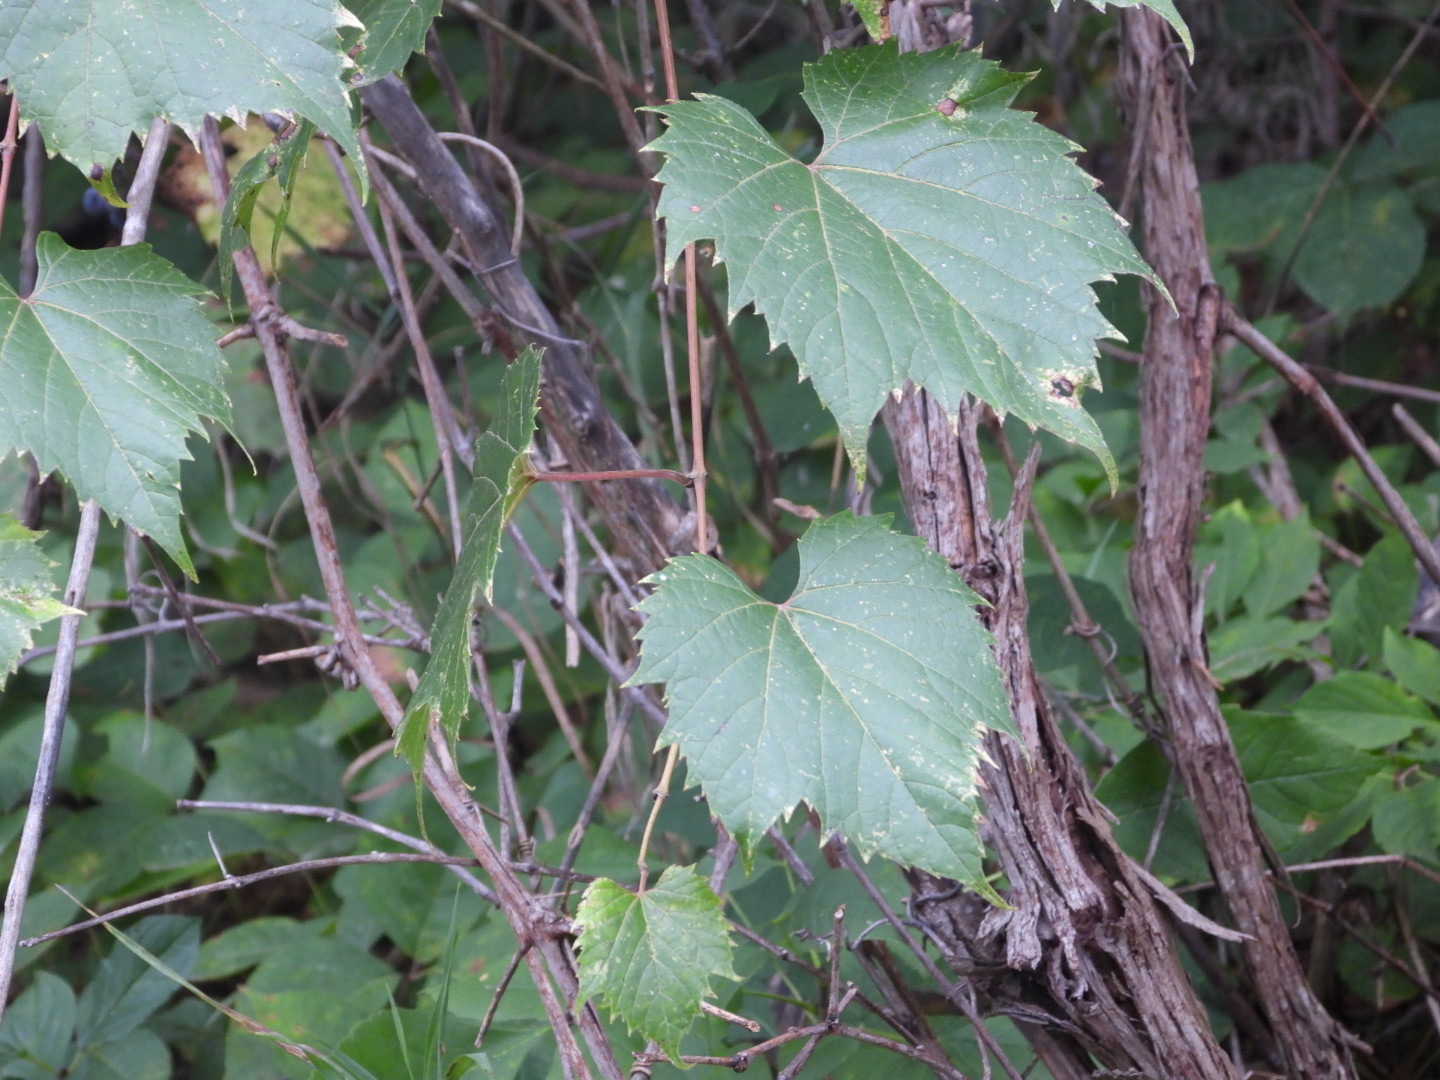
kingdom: Plantae
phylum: Tracheophyta
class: Magnoliopsida
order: Vitales
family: Vitaceae
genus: Vitis
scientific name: Vitis riparia
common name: Frost grape
